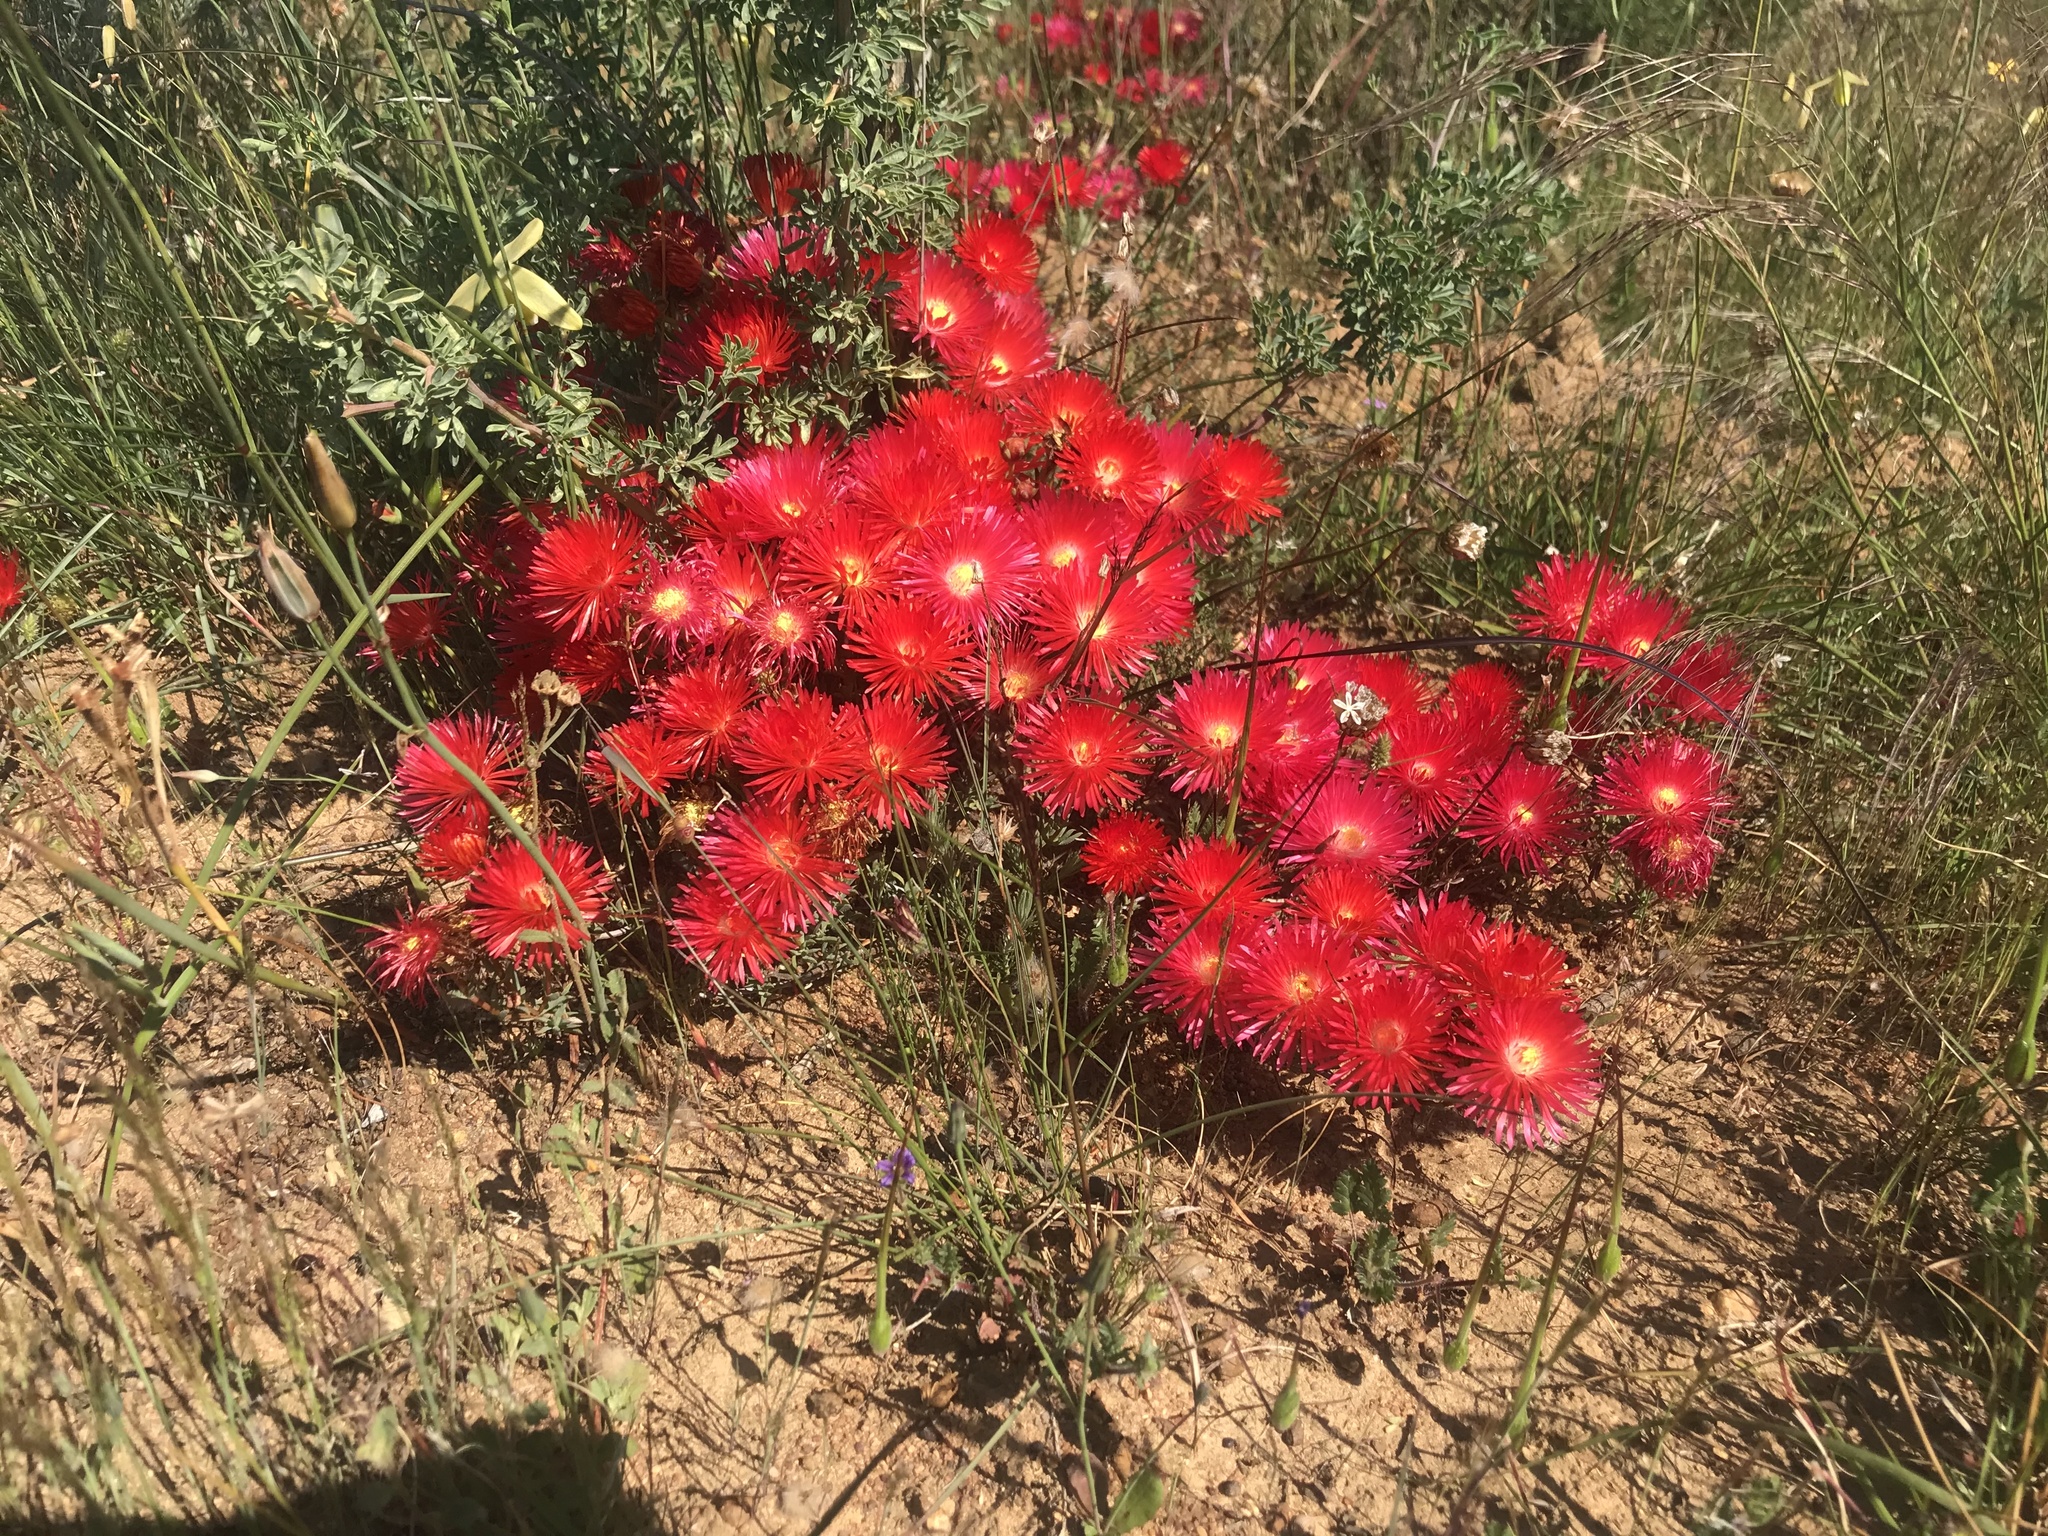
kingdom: Plantae
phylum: Tracheophyta
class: Magnoliopsida
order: Caryophyllales
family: Aizoaceae
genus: Lampranthus
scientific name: Lampranthus coccineus
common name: Redflush
